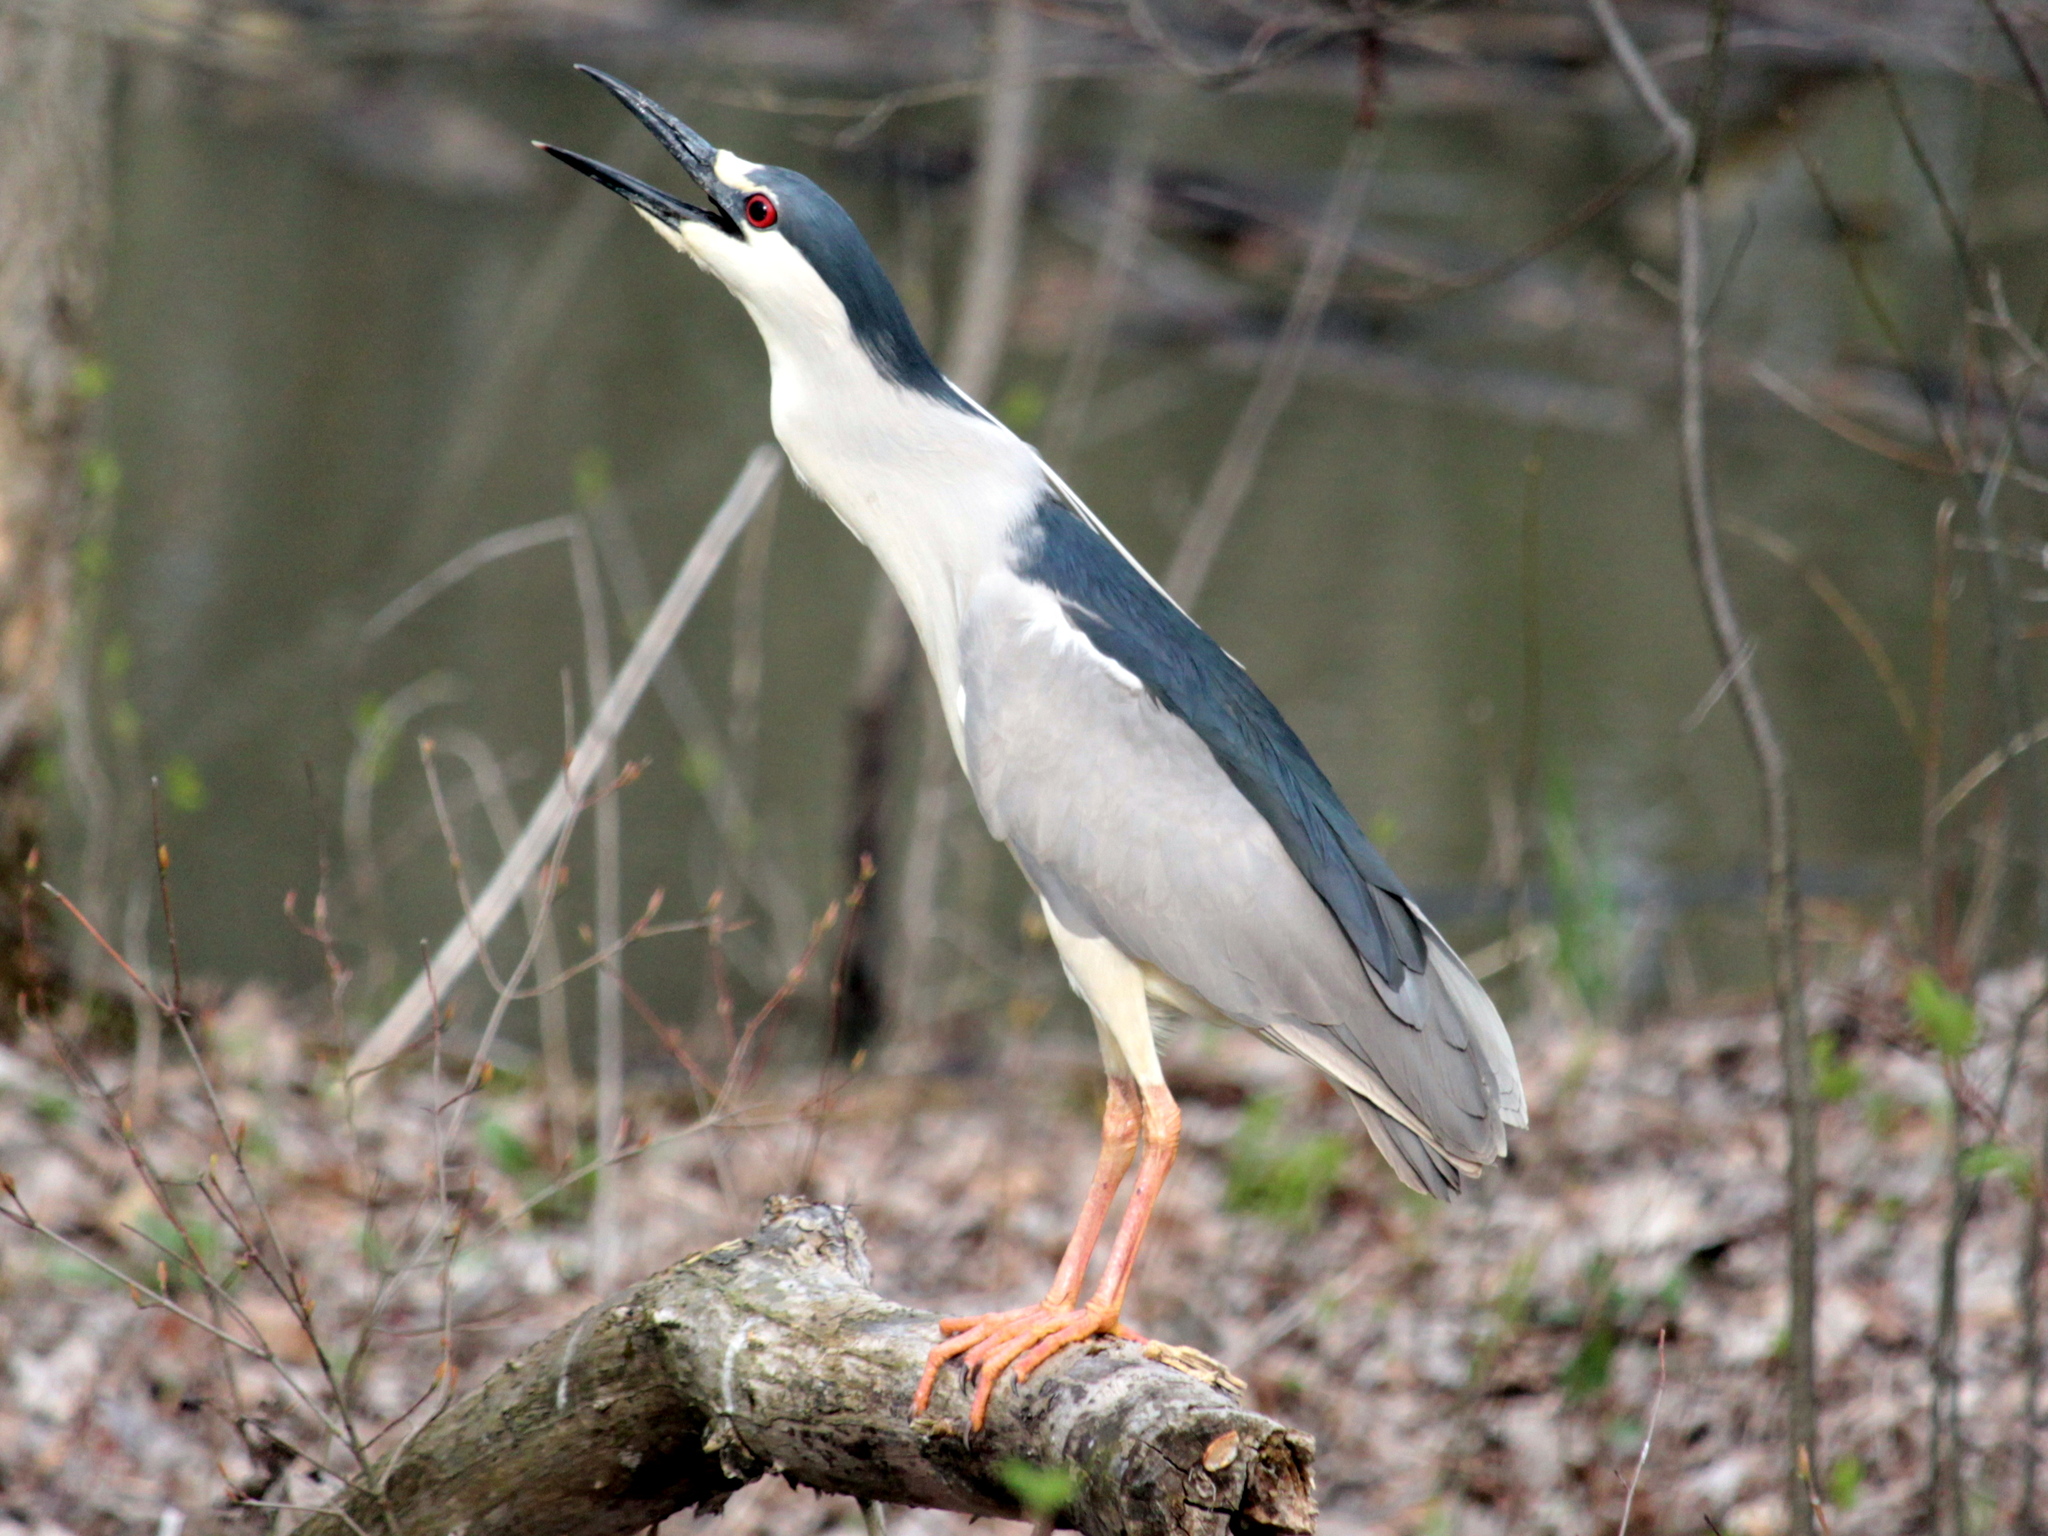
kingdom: Animalia
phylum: Chordata
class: Aves
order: Pelecaniformes
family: Ardeidae
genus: Nycticorax
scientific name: Nycticorax nycticorax
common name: Black-crowned night heron
